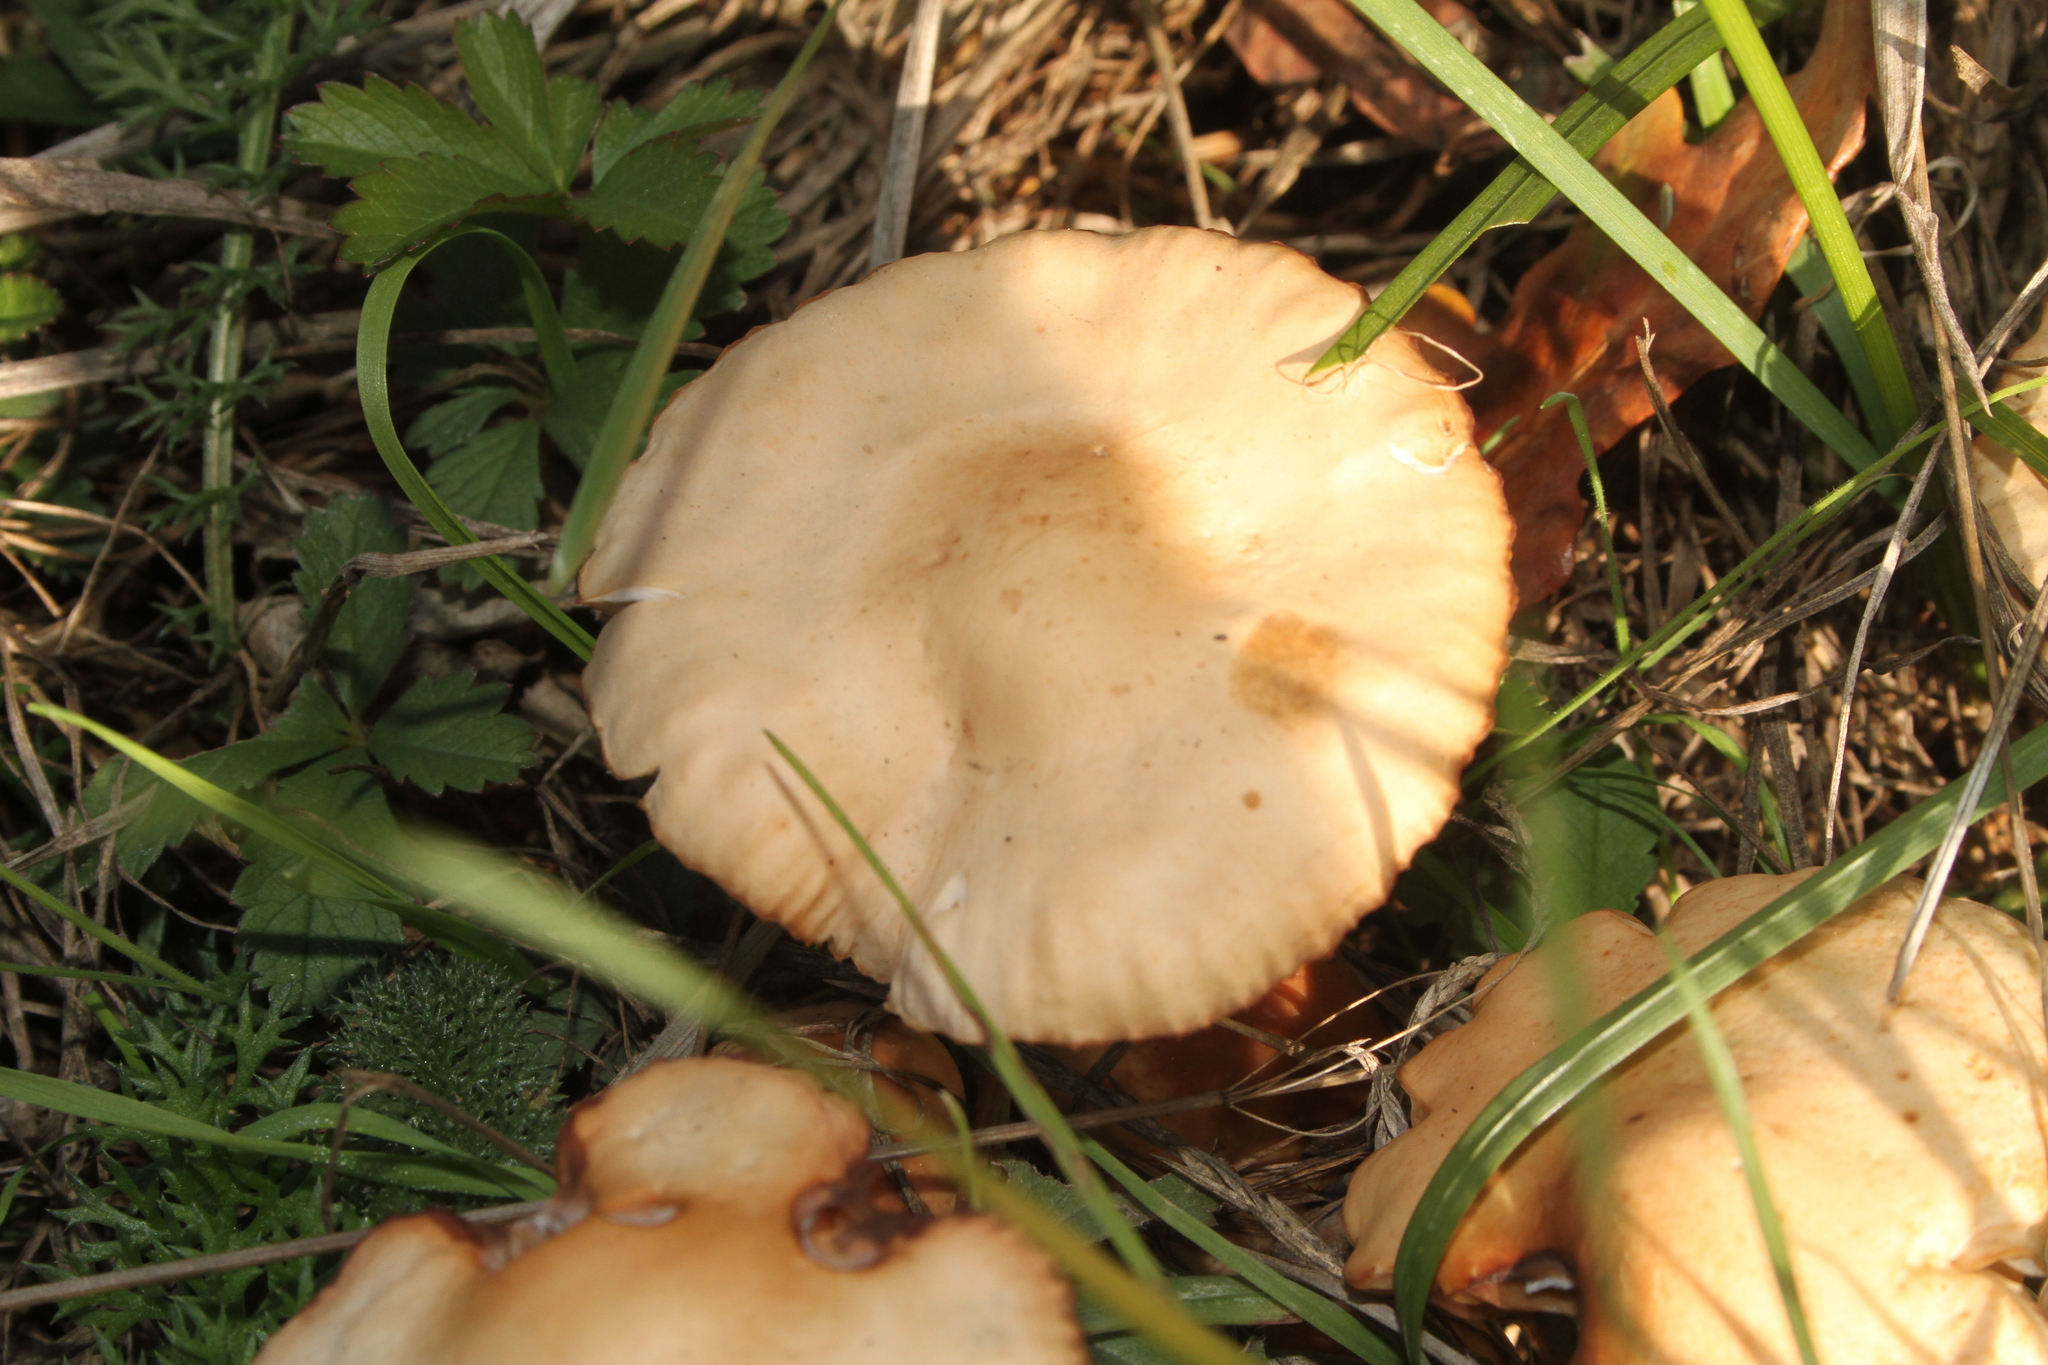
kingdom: Fungi
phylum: Basidiomycota
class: Agaricomycetes
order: Agaricales
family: Marasmiaceae
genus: Marasmius
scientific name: Marasmius oreades
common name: Fairy ring champignon
